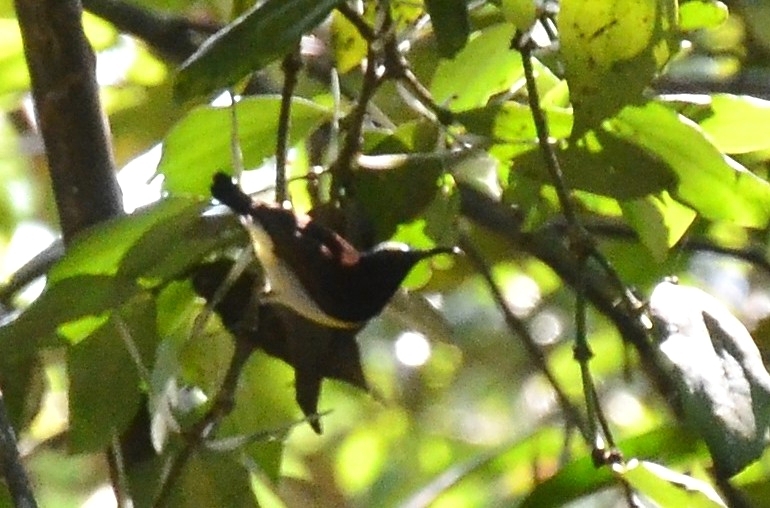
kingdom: Animalia
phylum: Chordata
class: Aves
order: Passeriformes
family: Nectariniidae
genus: Leptocoma
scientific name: Leptocoma zeylonica
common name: Purple-rumped sunbird
